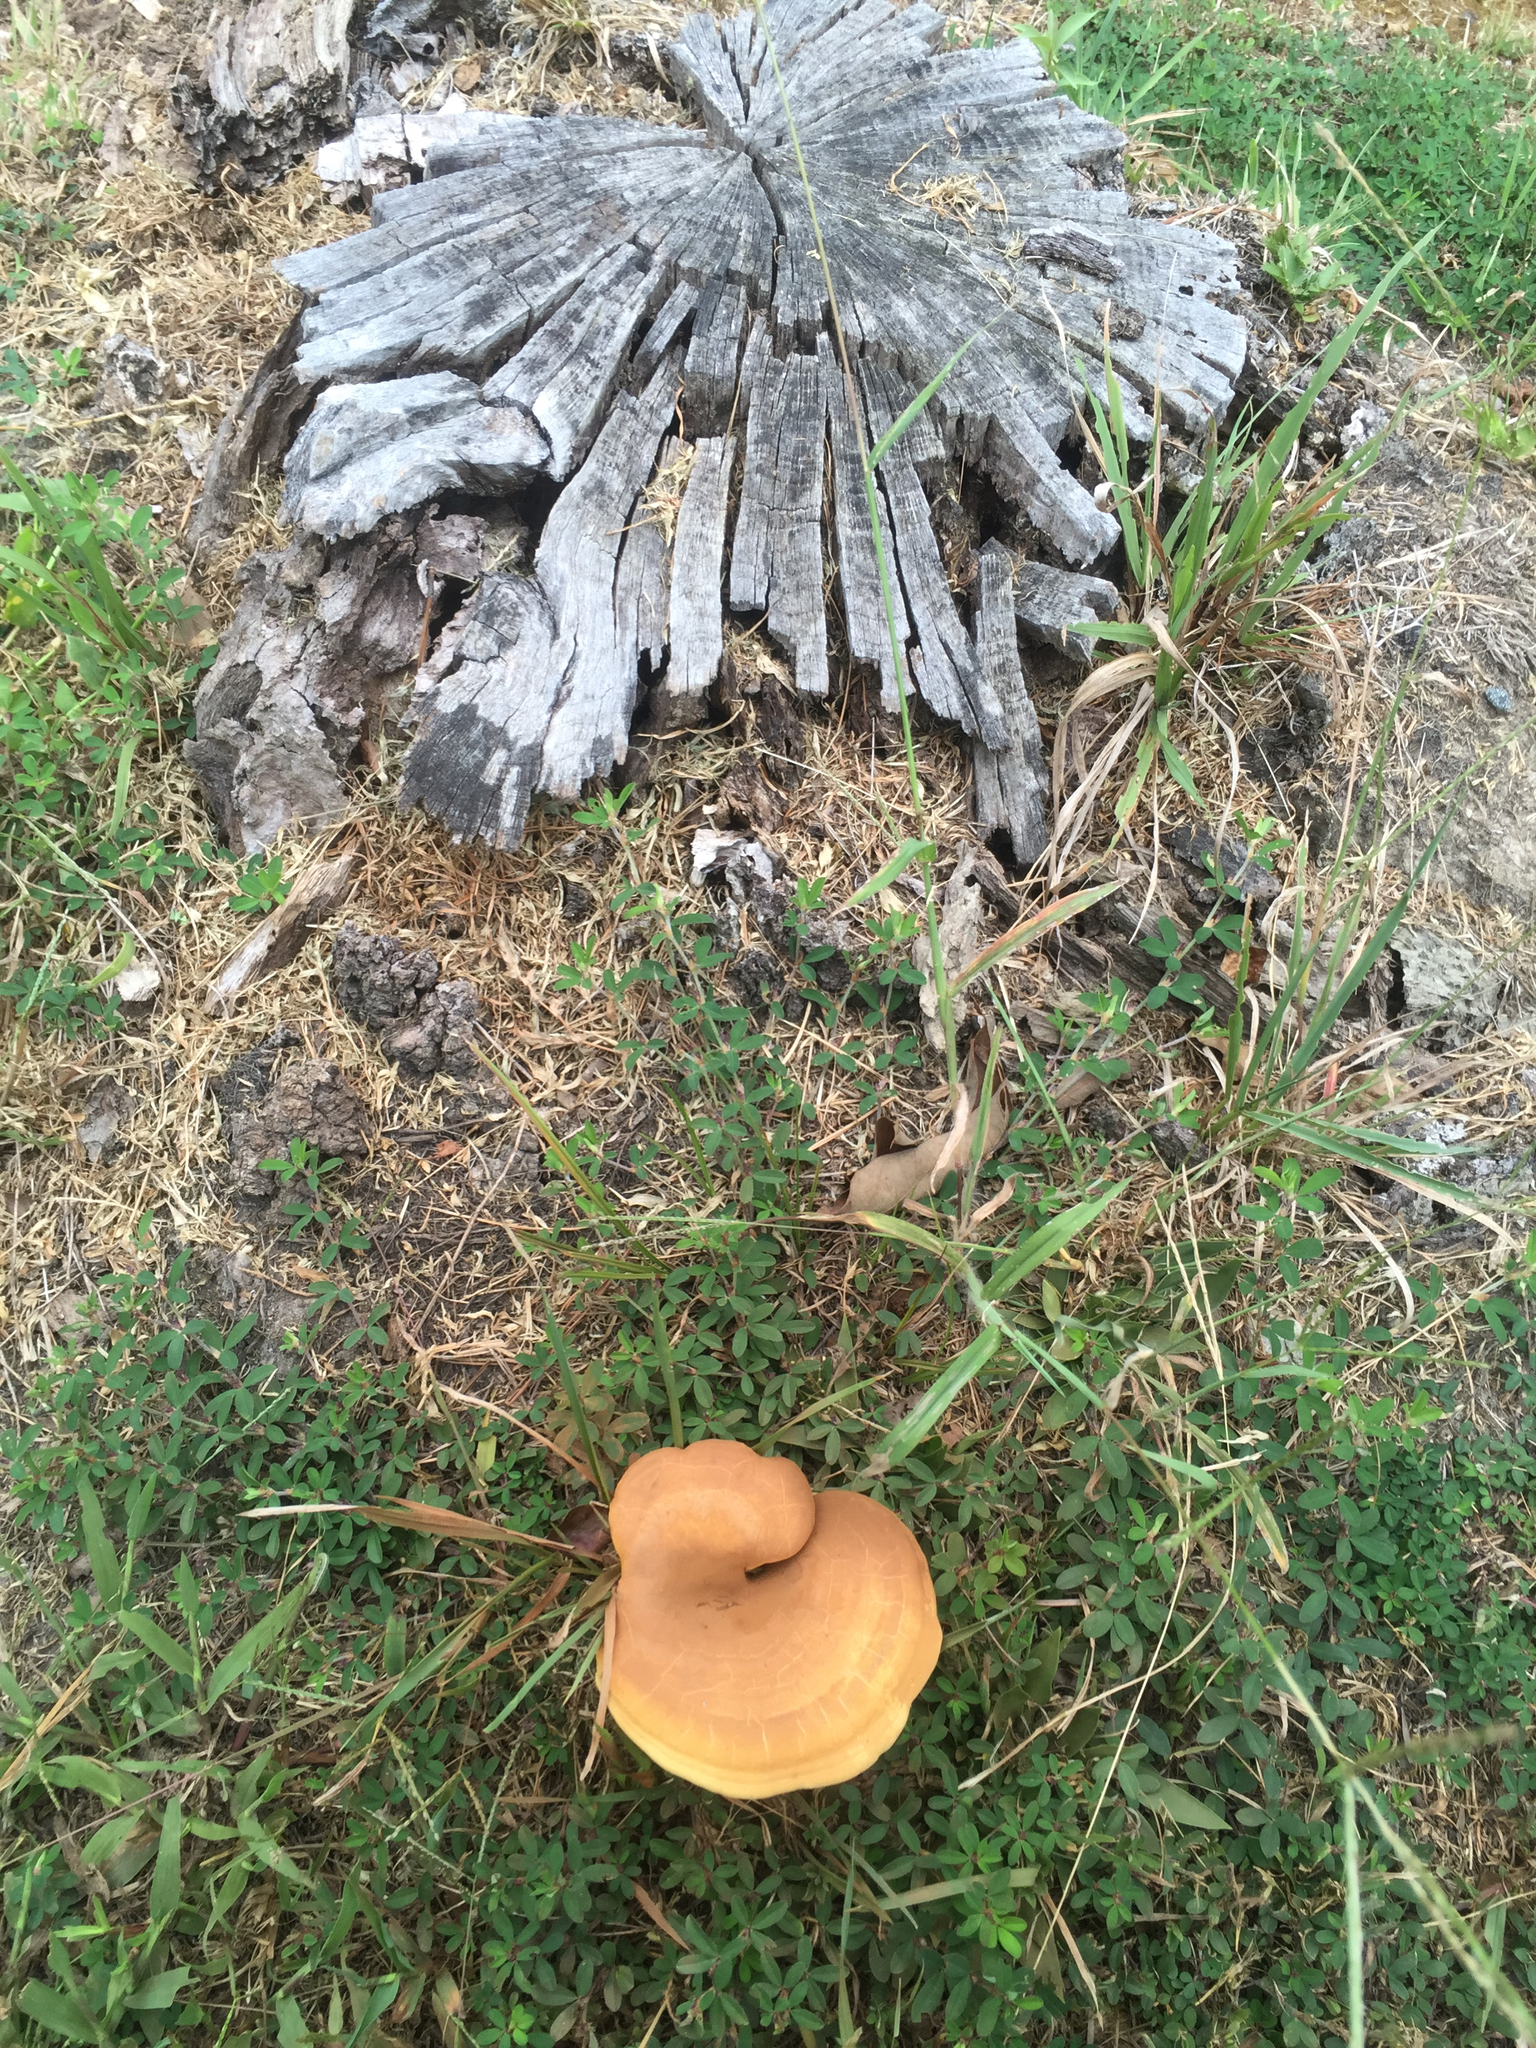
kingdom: Fungi
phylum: Basidiomycota
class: Agaricomycetes
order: Polyporales
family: Polyporaceae
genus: Ganoderma
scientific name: Ganoderma curtisii
